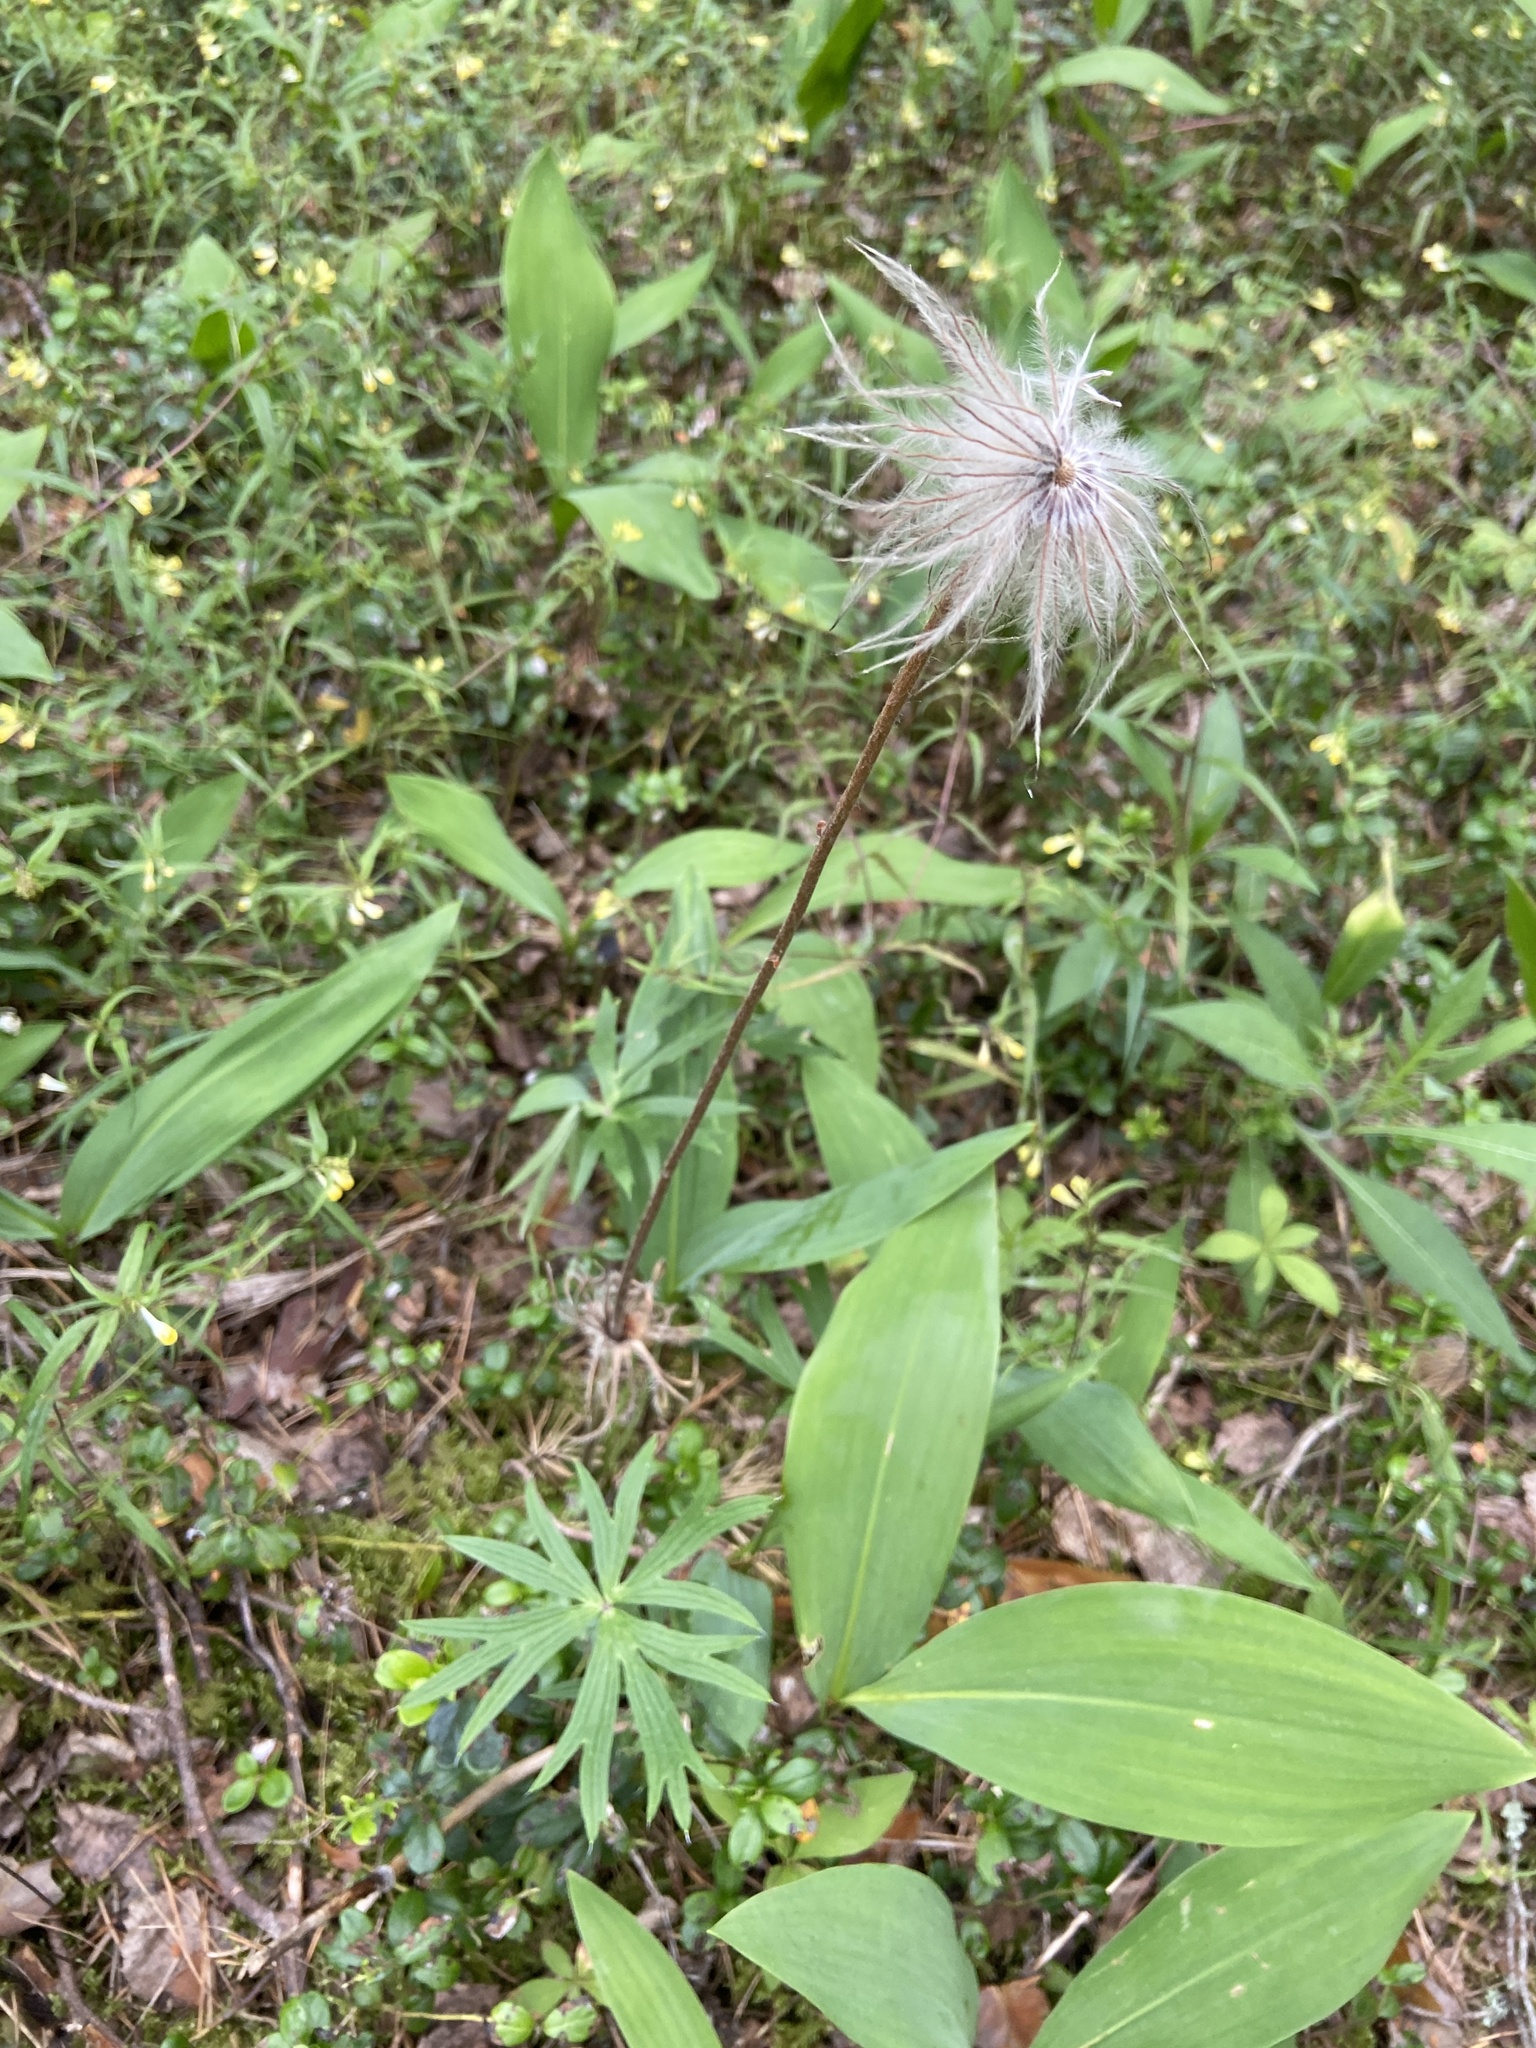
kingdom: Plantae
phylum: Tracheophyta
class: Magnoliopsida
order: Ranunculales
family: Ranunculaceae
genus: Pulsatilla
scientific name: Pulsatilla patens
